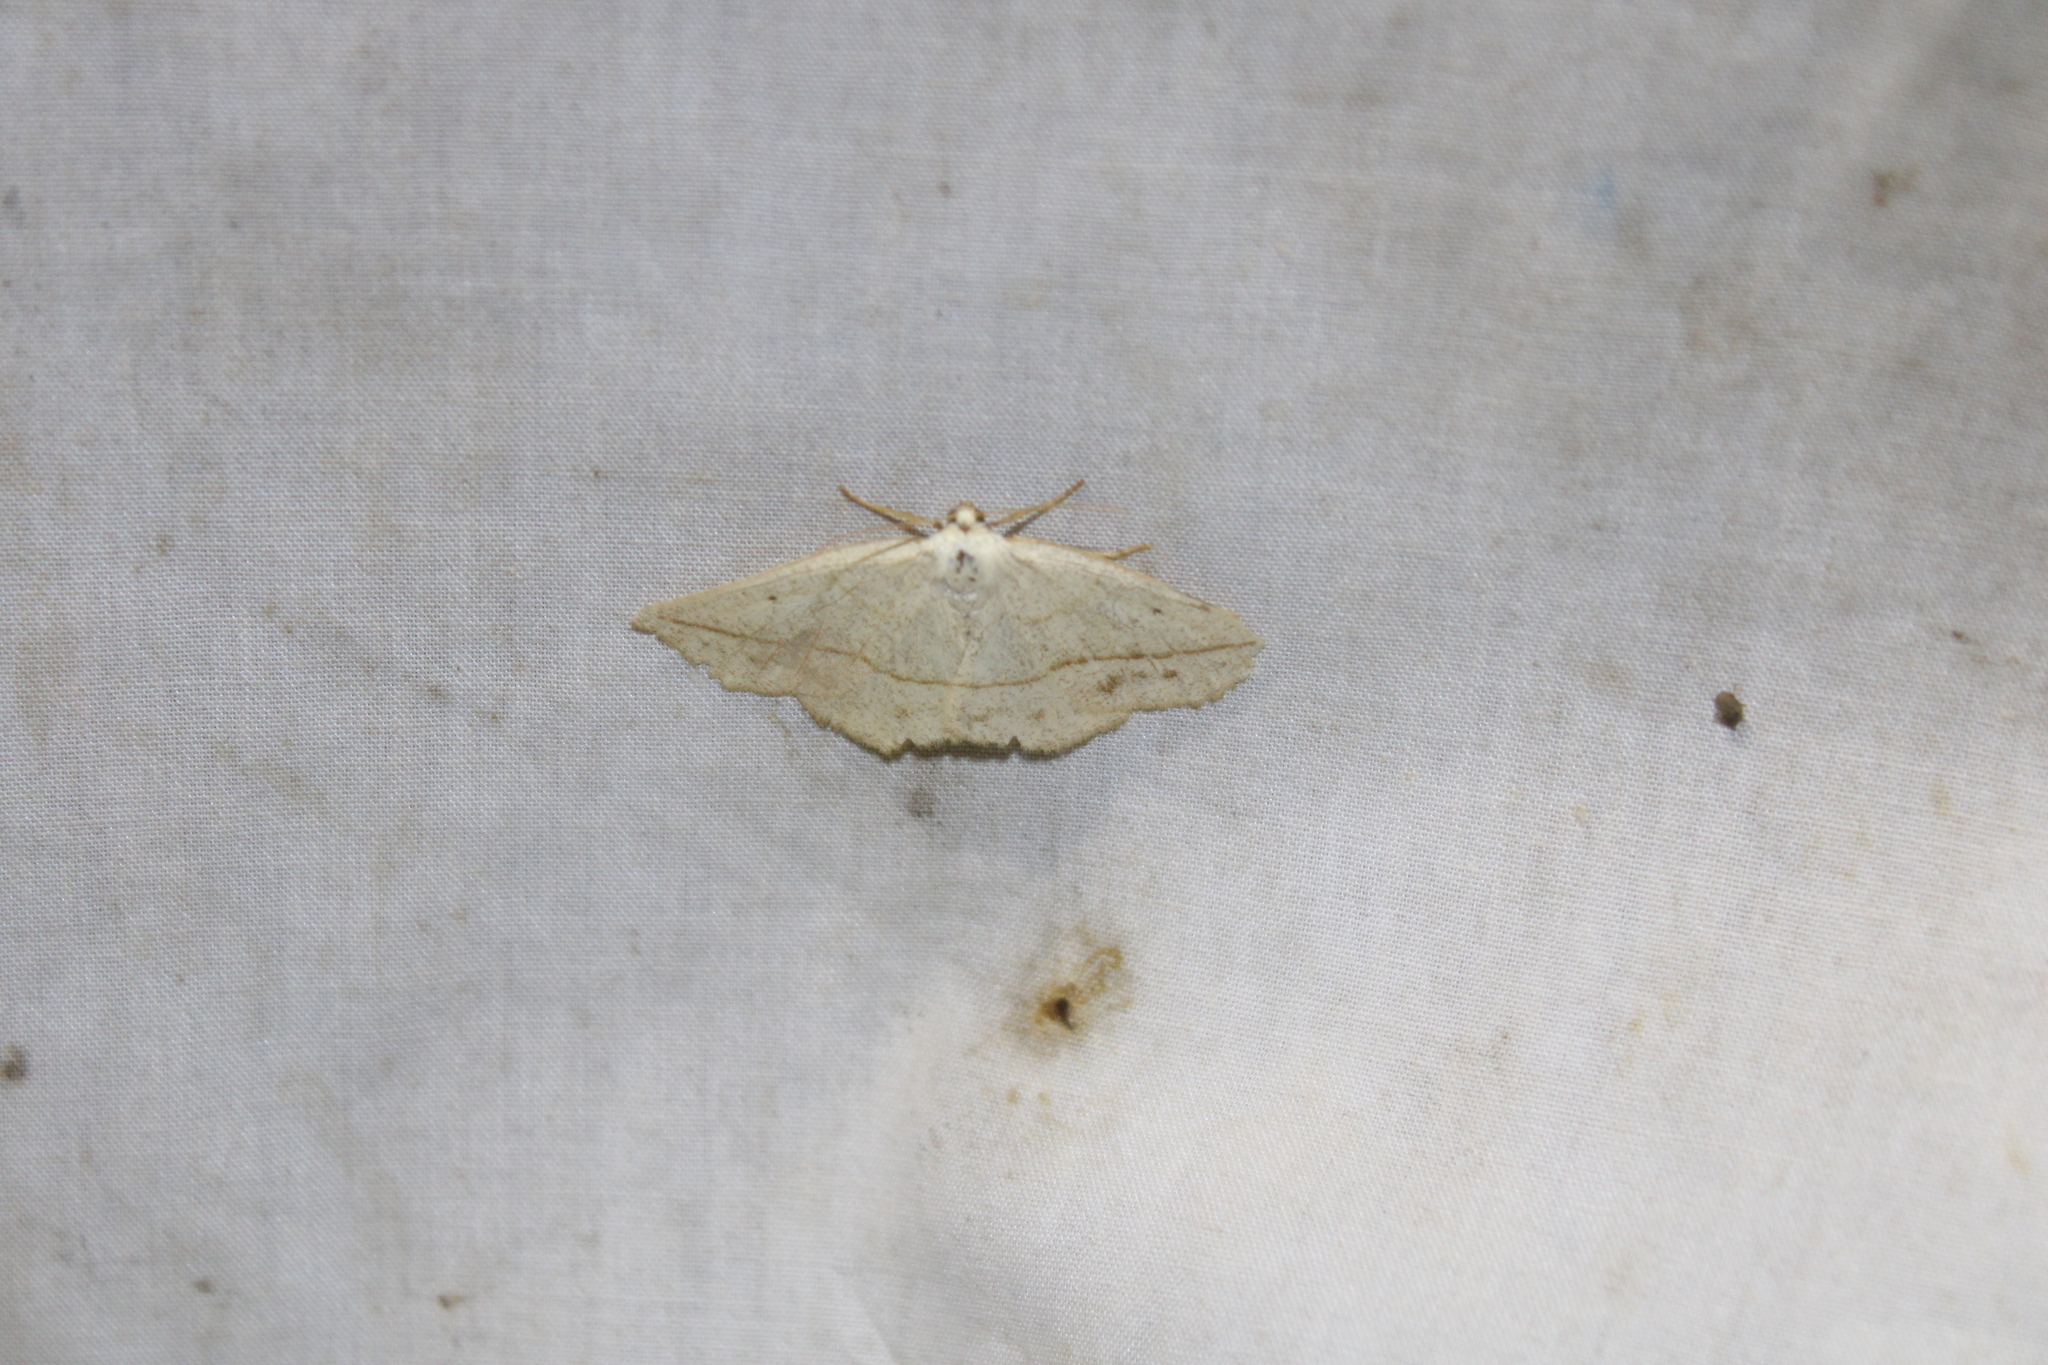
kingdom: Animalia
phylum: Arthropoda
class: Insecta
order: Lepidoptera
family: Geometridae
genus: Eusarca
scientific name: Eusarca confusaria
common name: Confused eusarca
